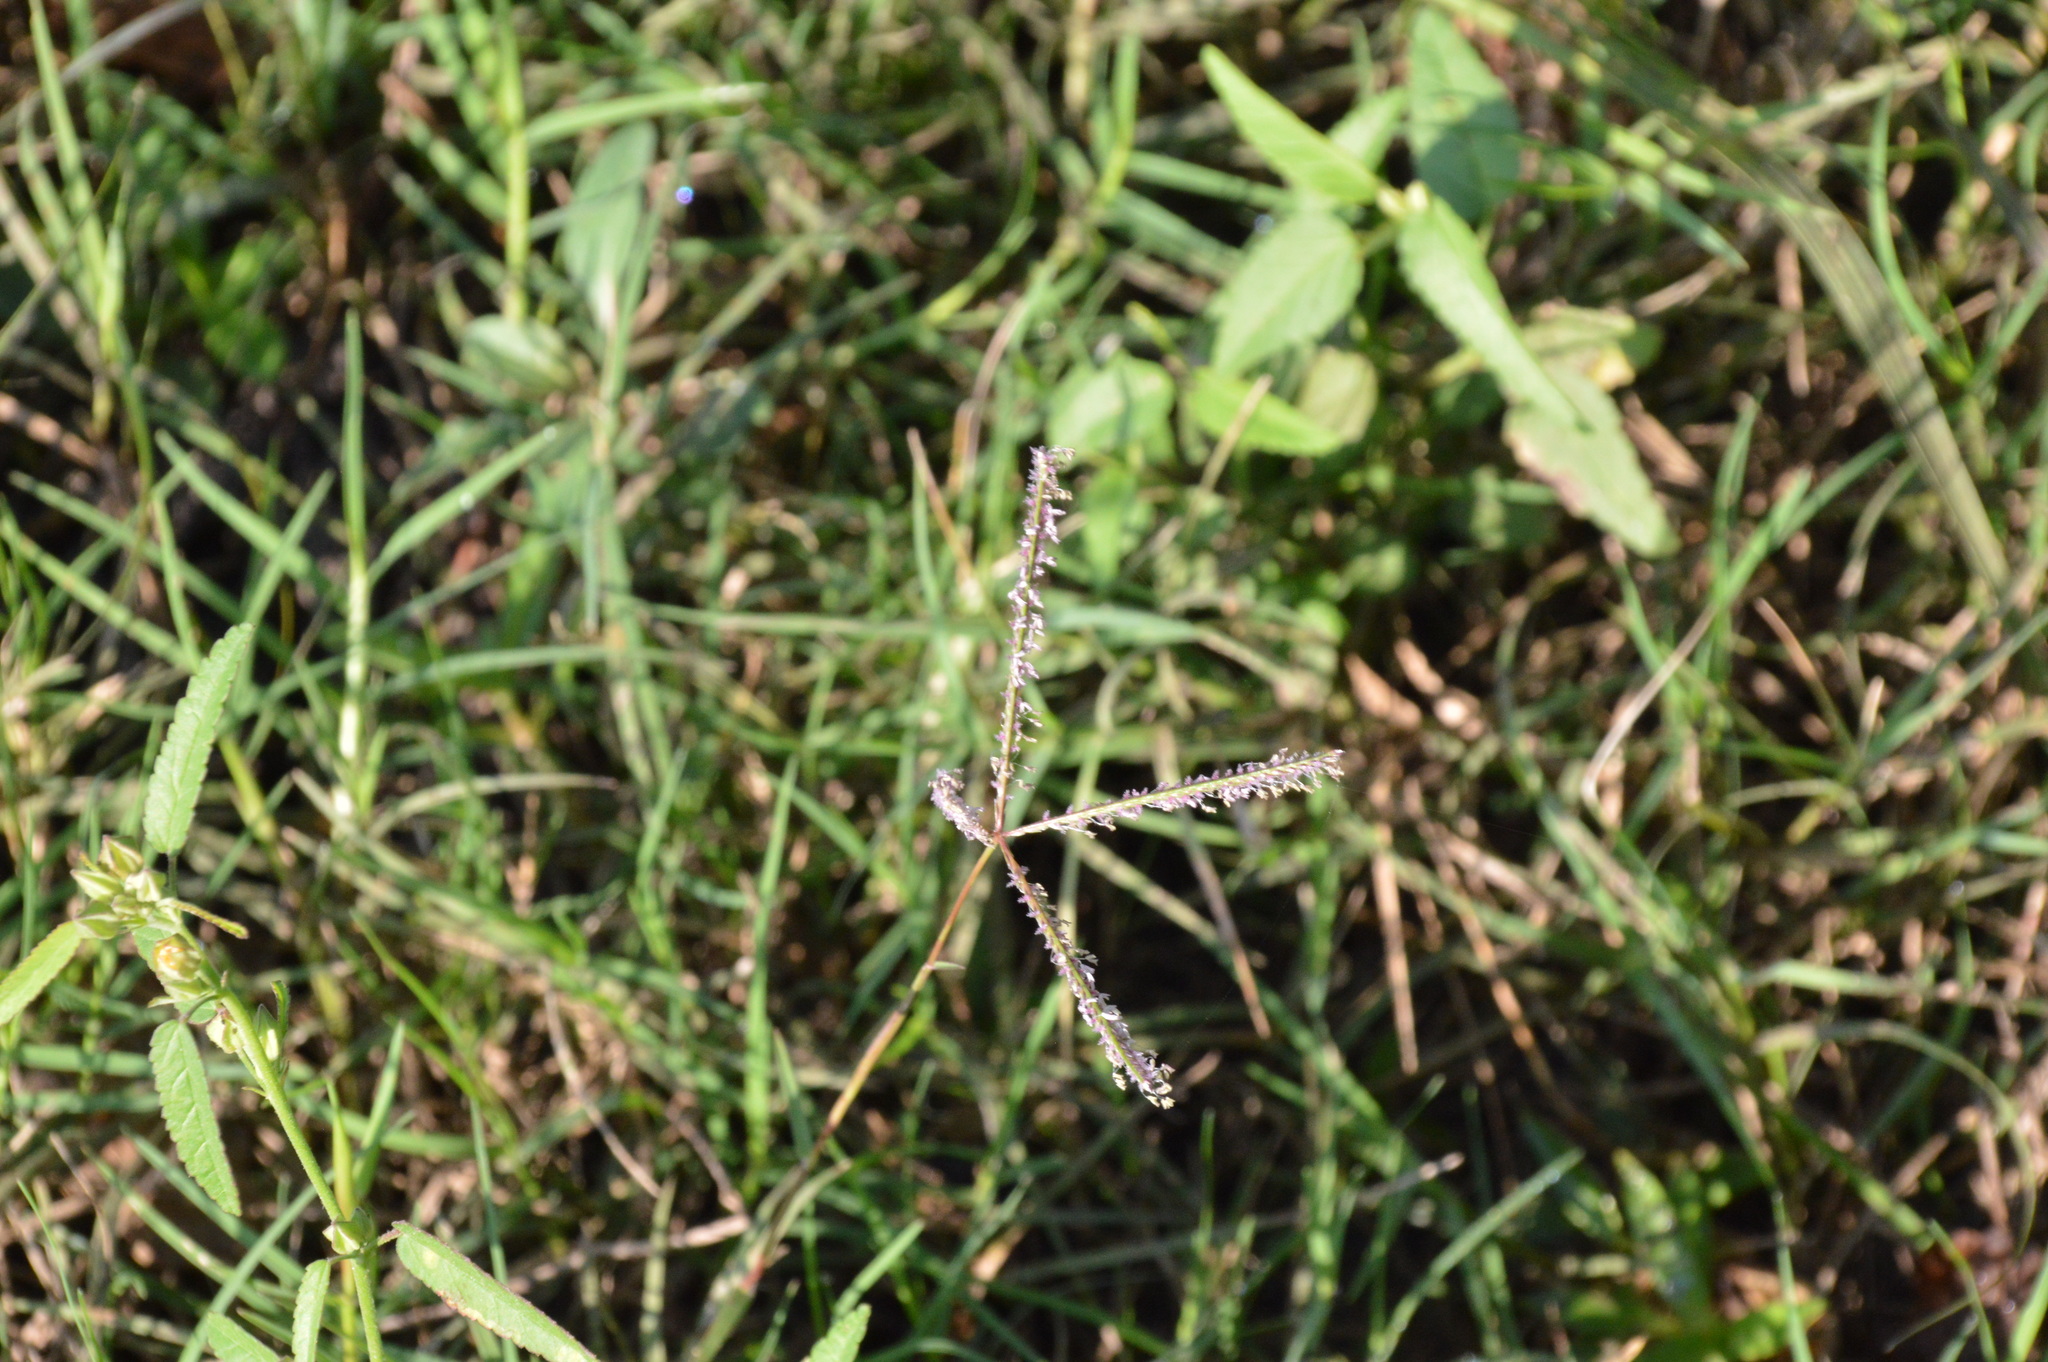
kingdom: Plantae
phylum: Tracheophyta
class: Liliopsida
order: Poales
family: Poaceae
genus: Cynodon
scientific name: Cynodon dactylon
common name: Bermuda grass
